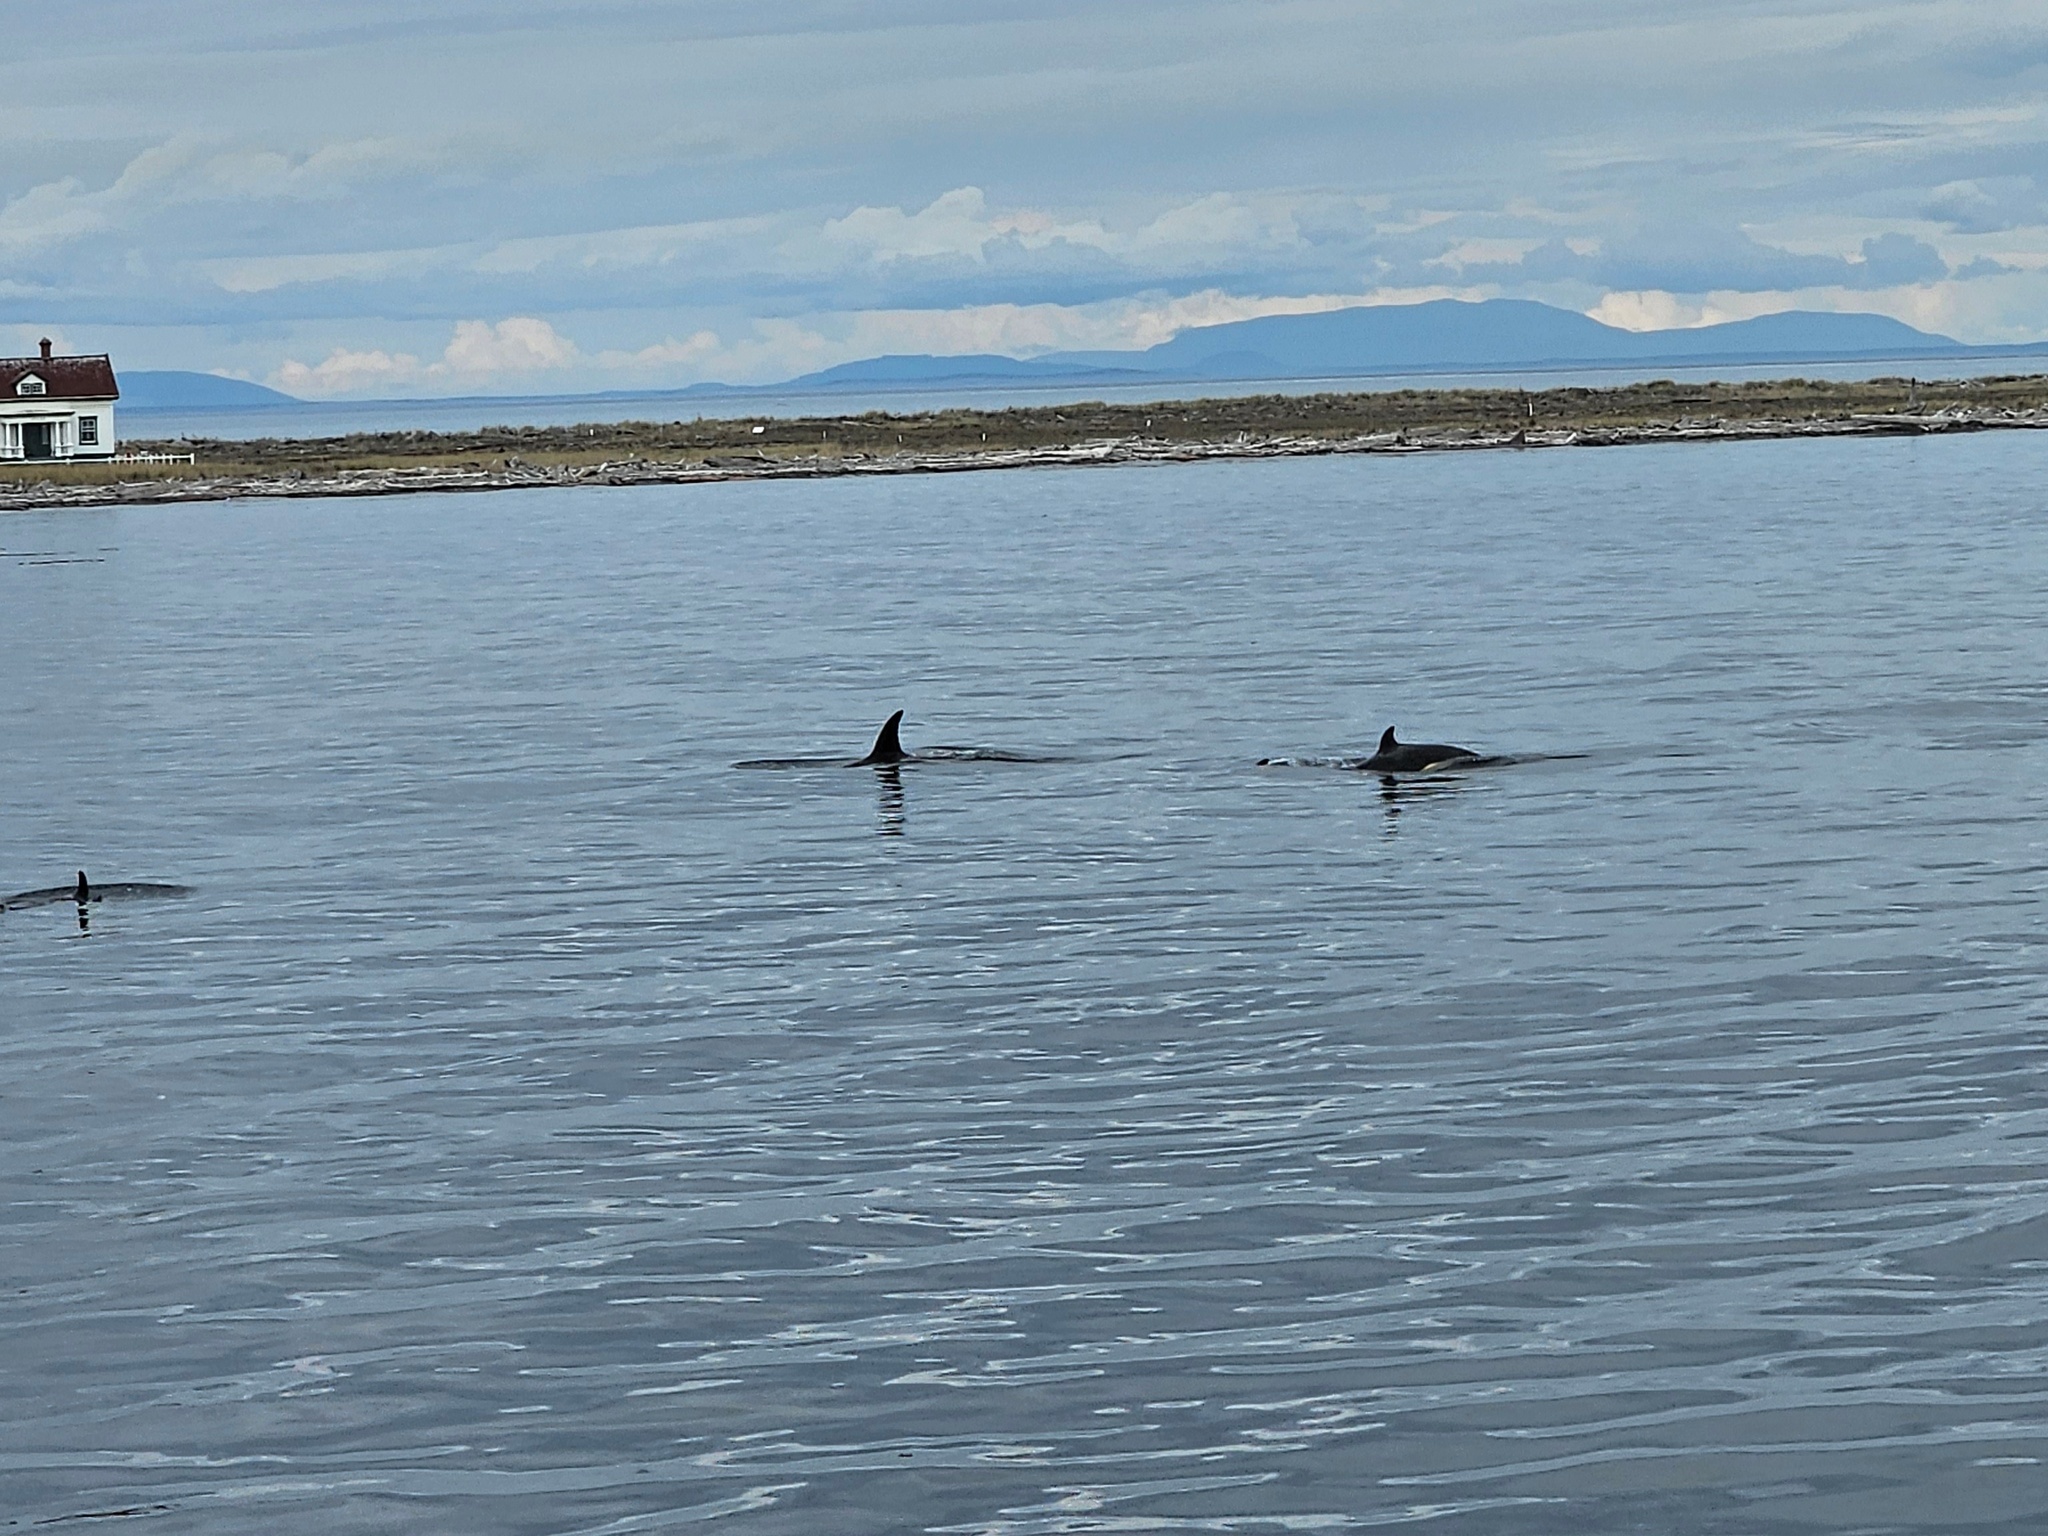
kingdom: Animalia
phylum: Chordata
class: Mammalia
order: Cetacea
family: Delphinidae
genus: Orcinus
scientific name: Orcinus orca
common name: Killer whale
